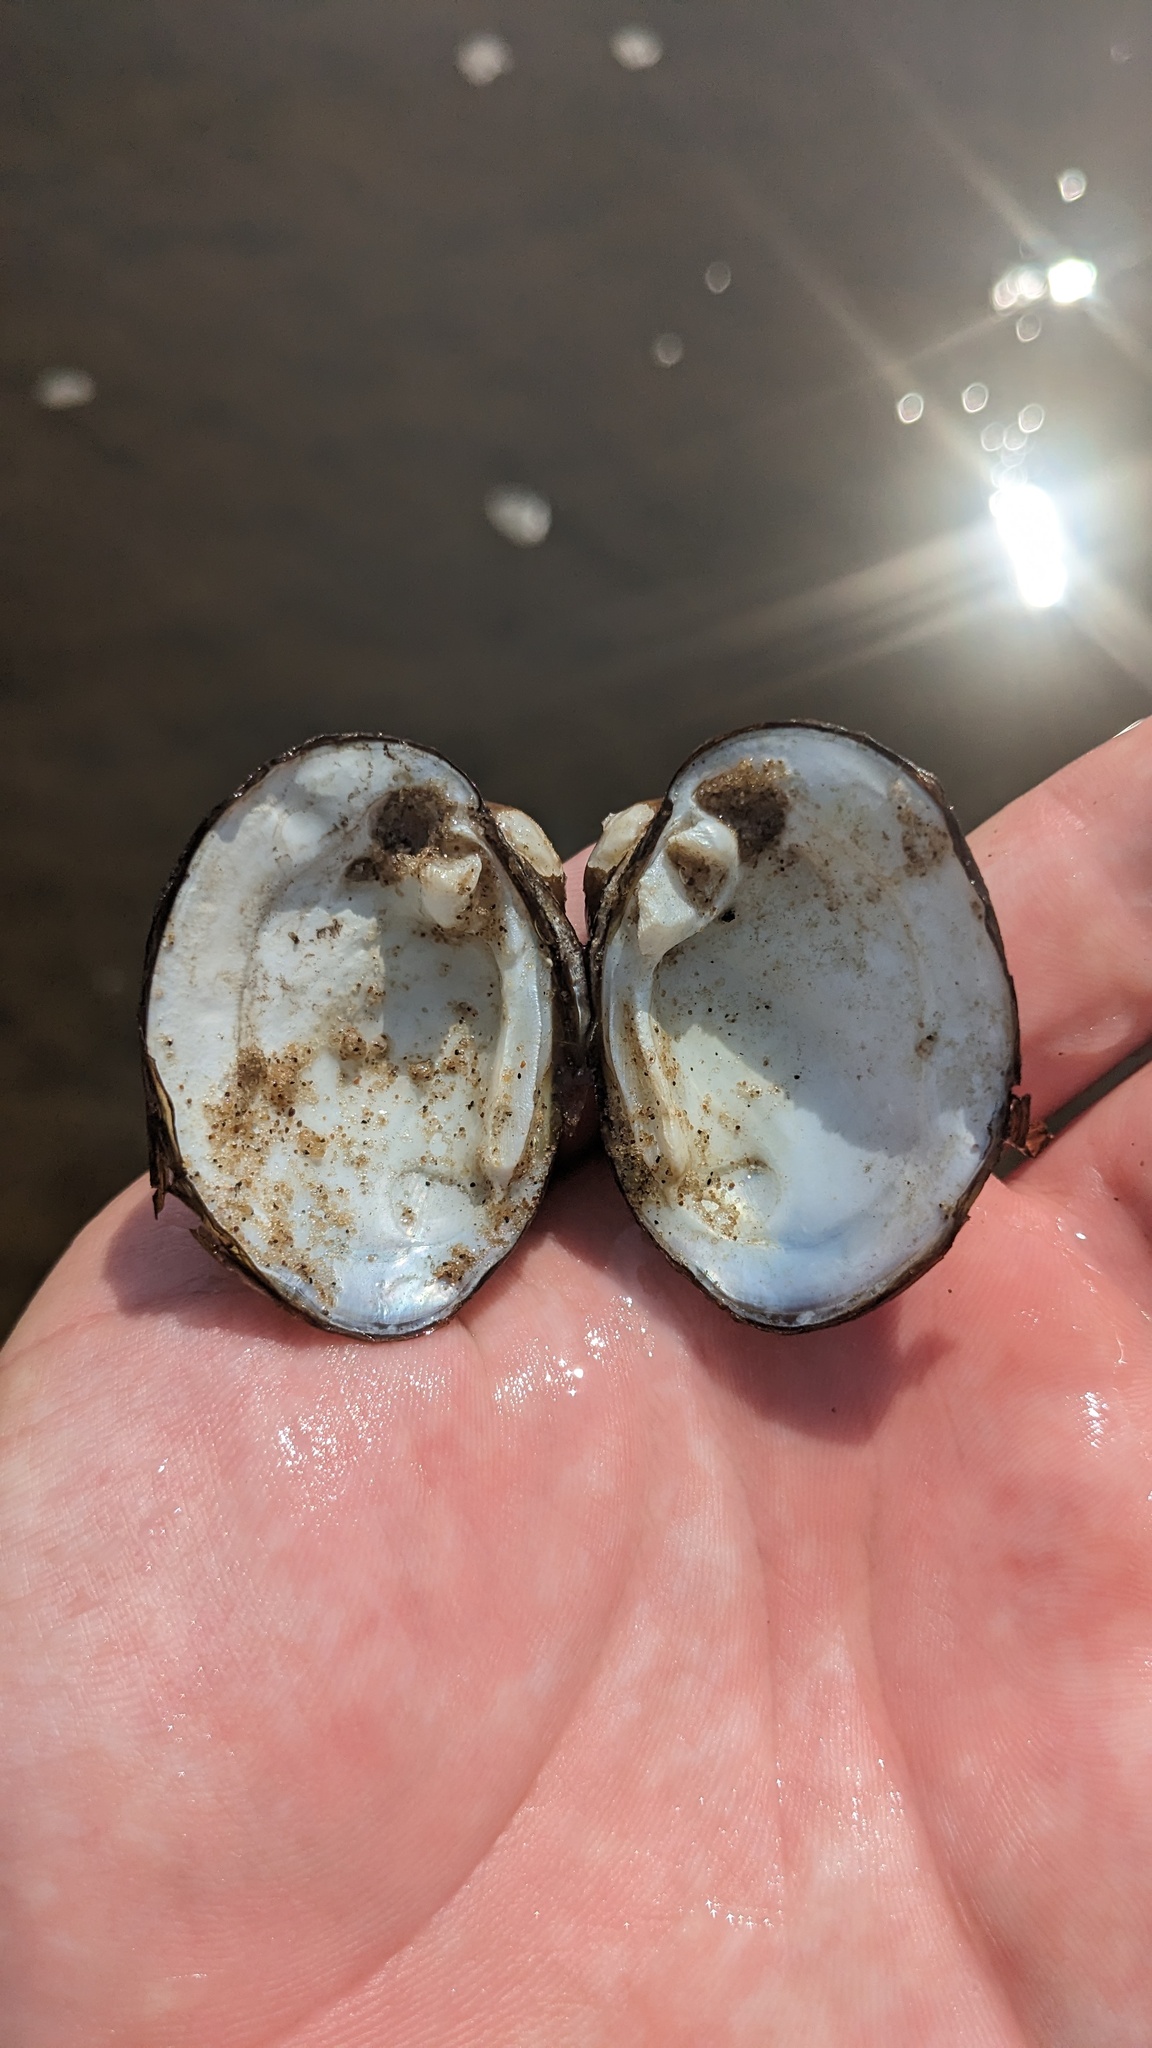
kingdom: Animalia
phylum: Mollusca
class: Bivalvia
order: Unionida
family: Unionidae
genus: Obovaria
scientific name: Obovaria olivaria
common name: Hickorynut
